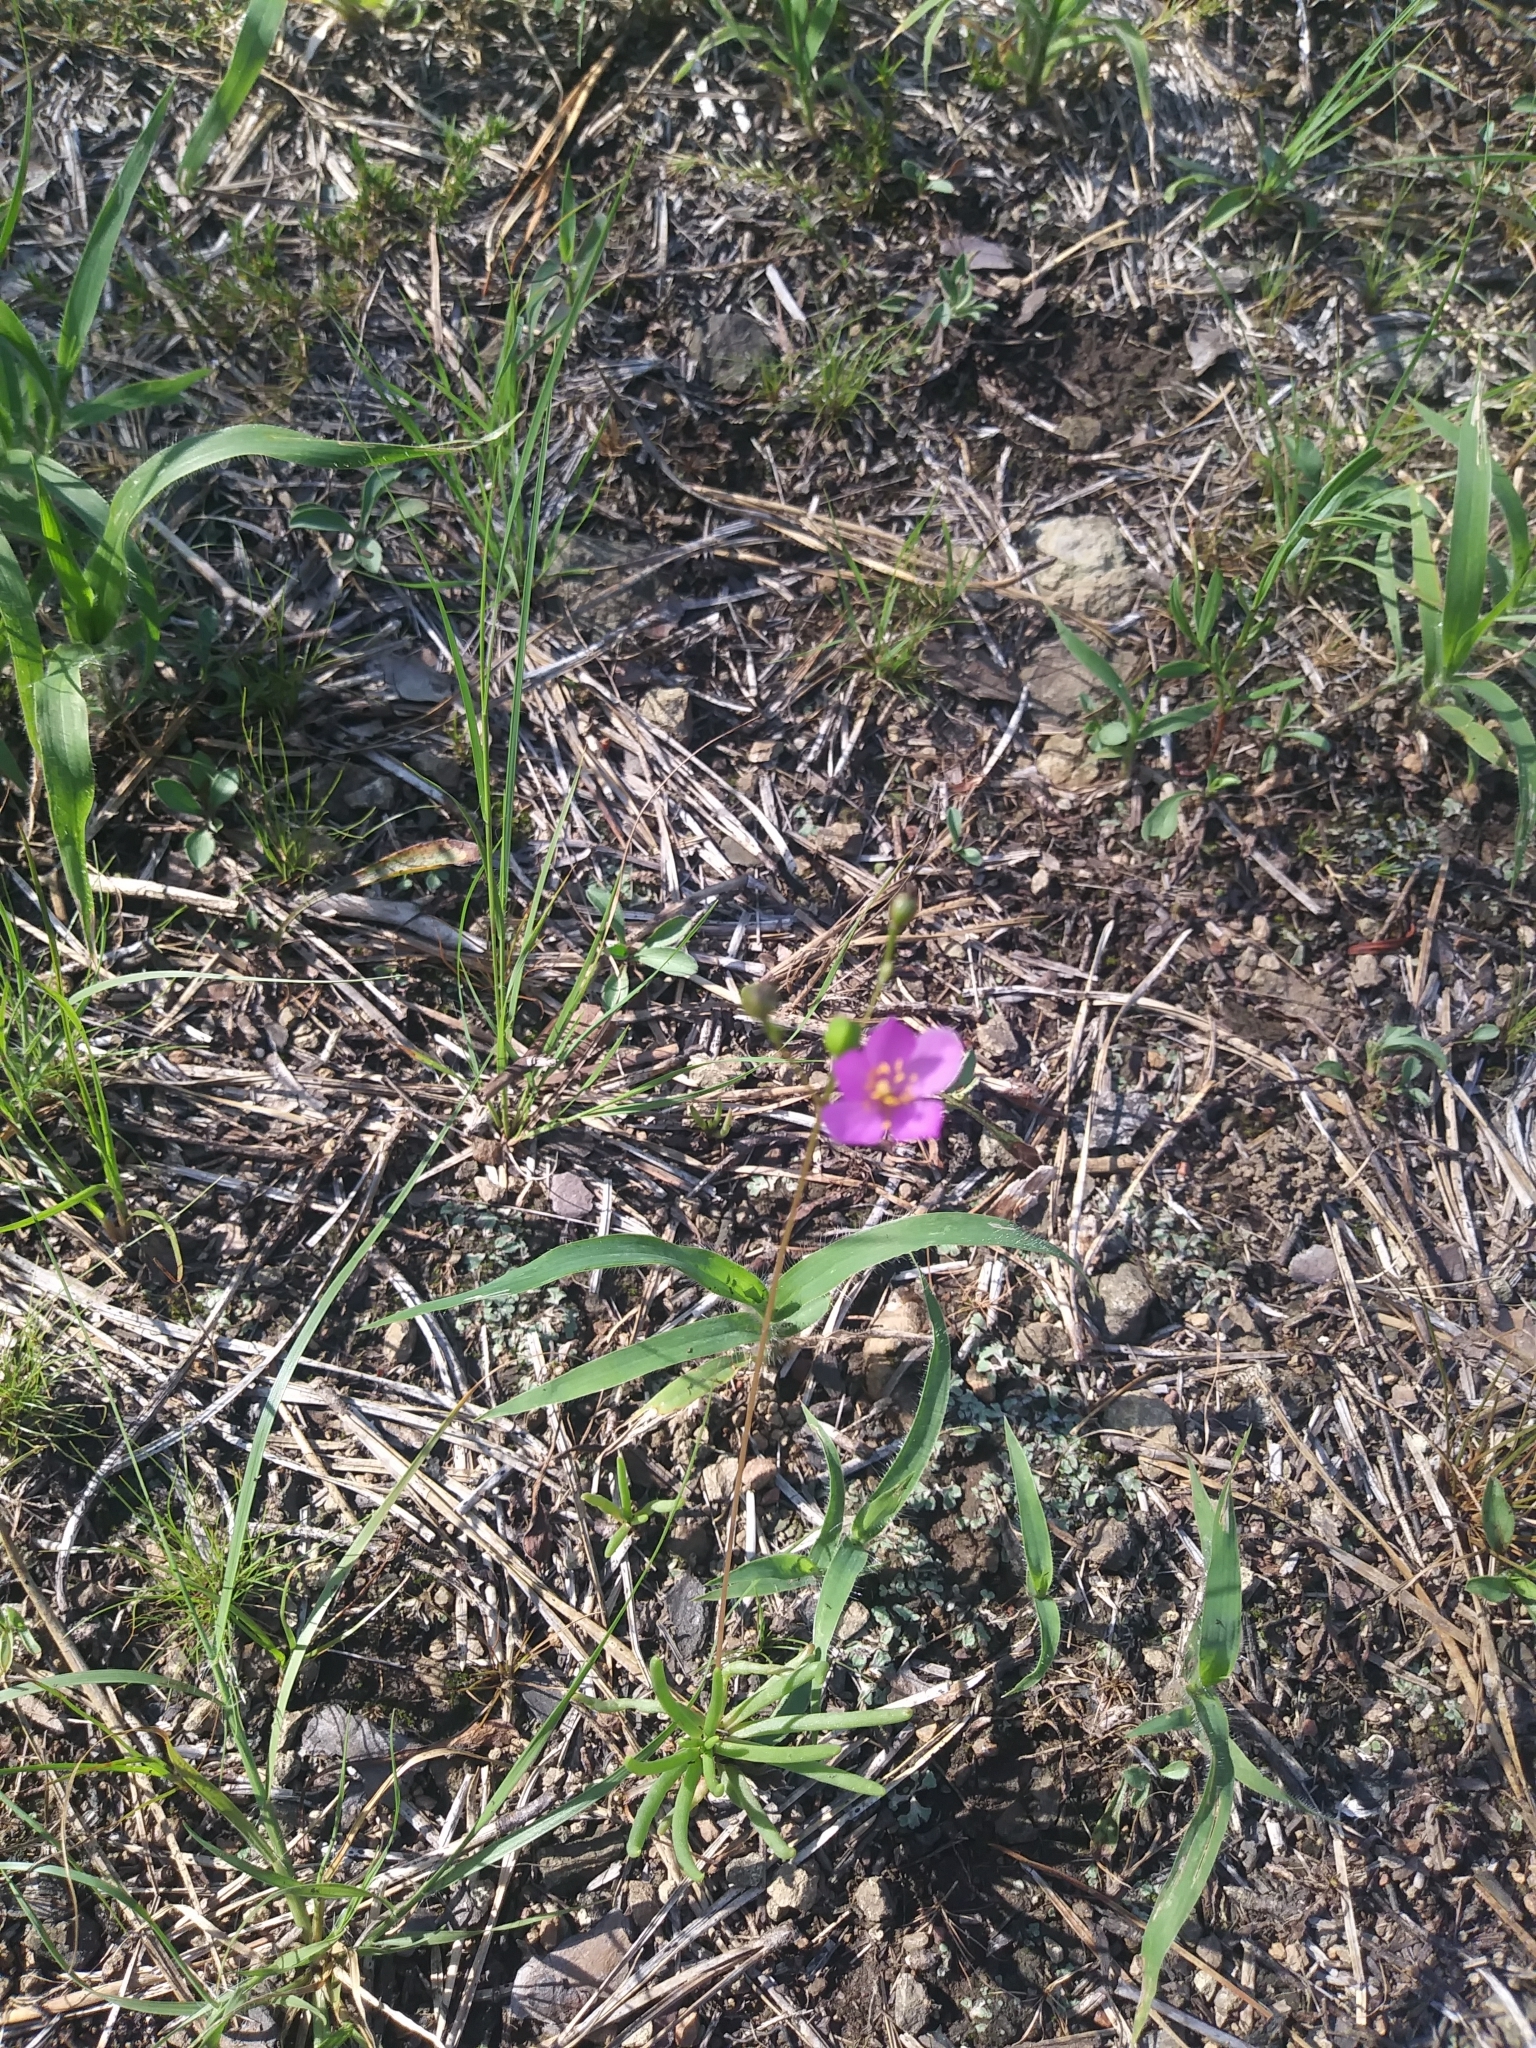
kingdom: Plantae
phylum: Tracheophyta
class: Magnoliopsida
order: Caryophyllales
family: Montiaceae
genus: Phemeranthus
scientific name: Phemeranthus teretifolius
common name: Quill fameflower
